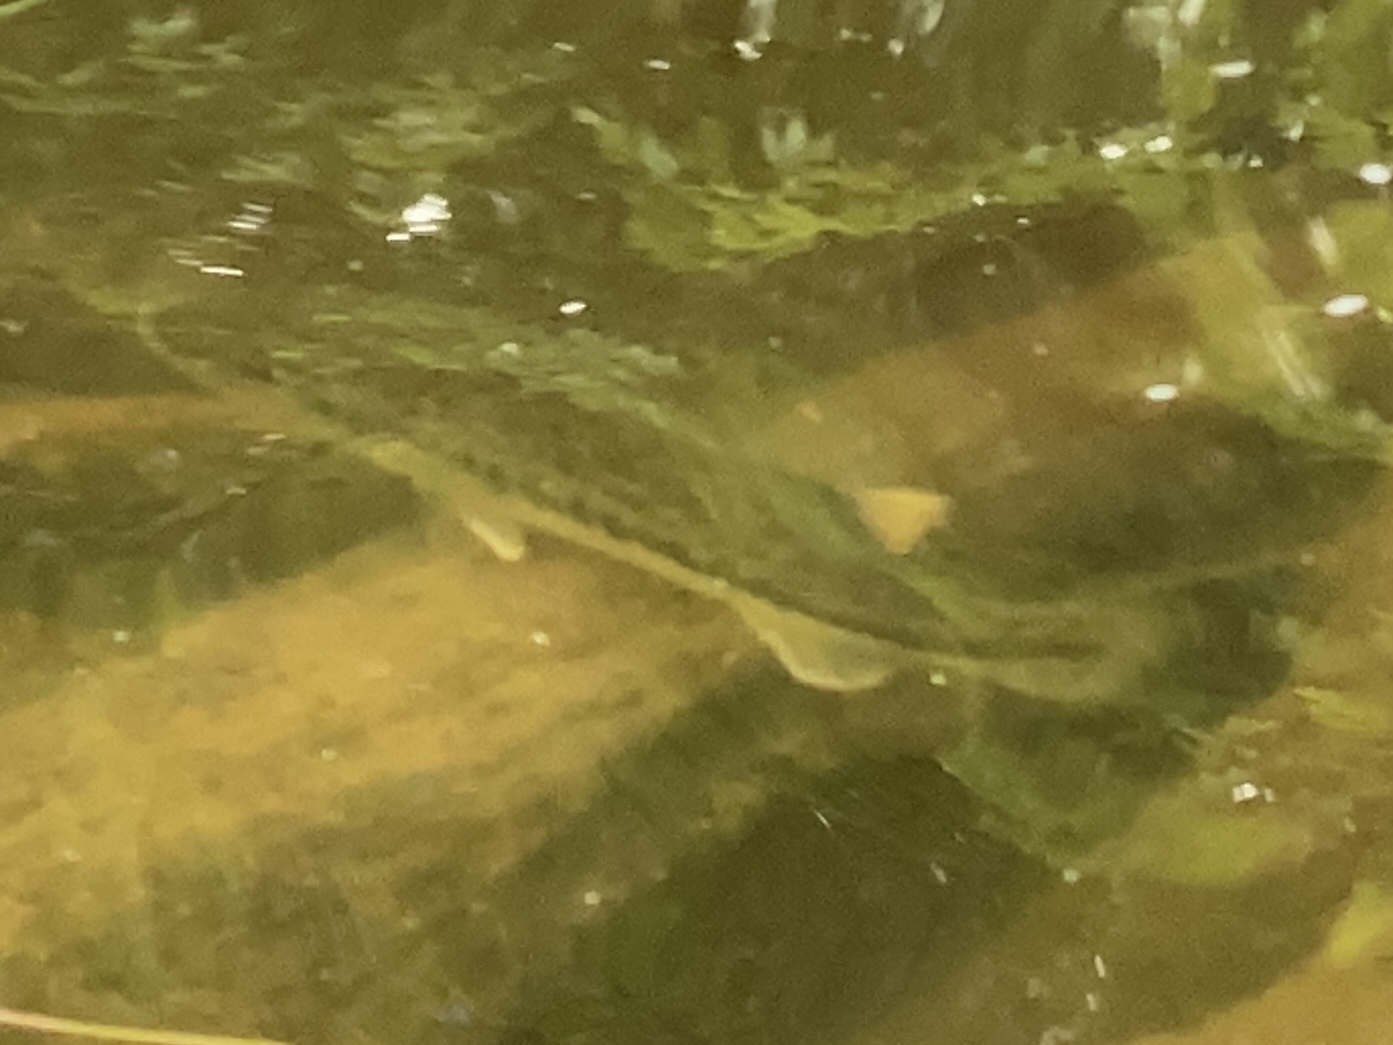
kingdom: Animalia
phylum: Chordata
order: Perciformes
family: Centrarchidae
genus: Micropterus
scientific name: Micropterus
